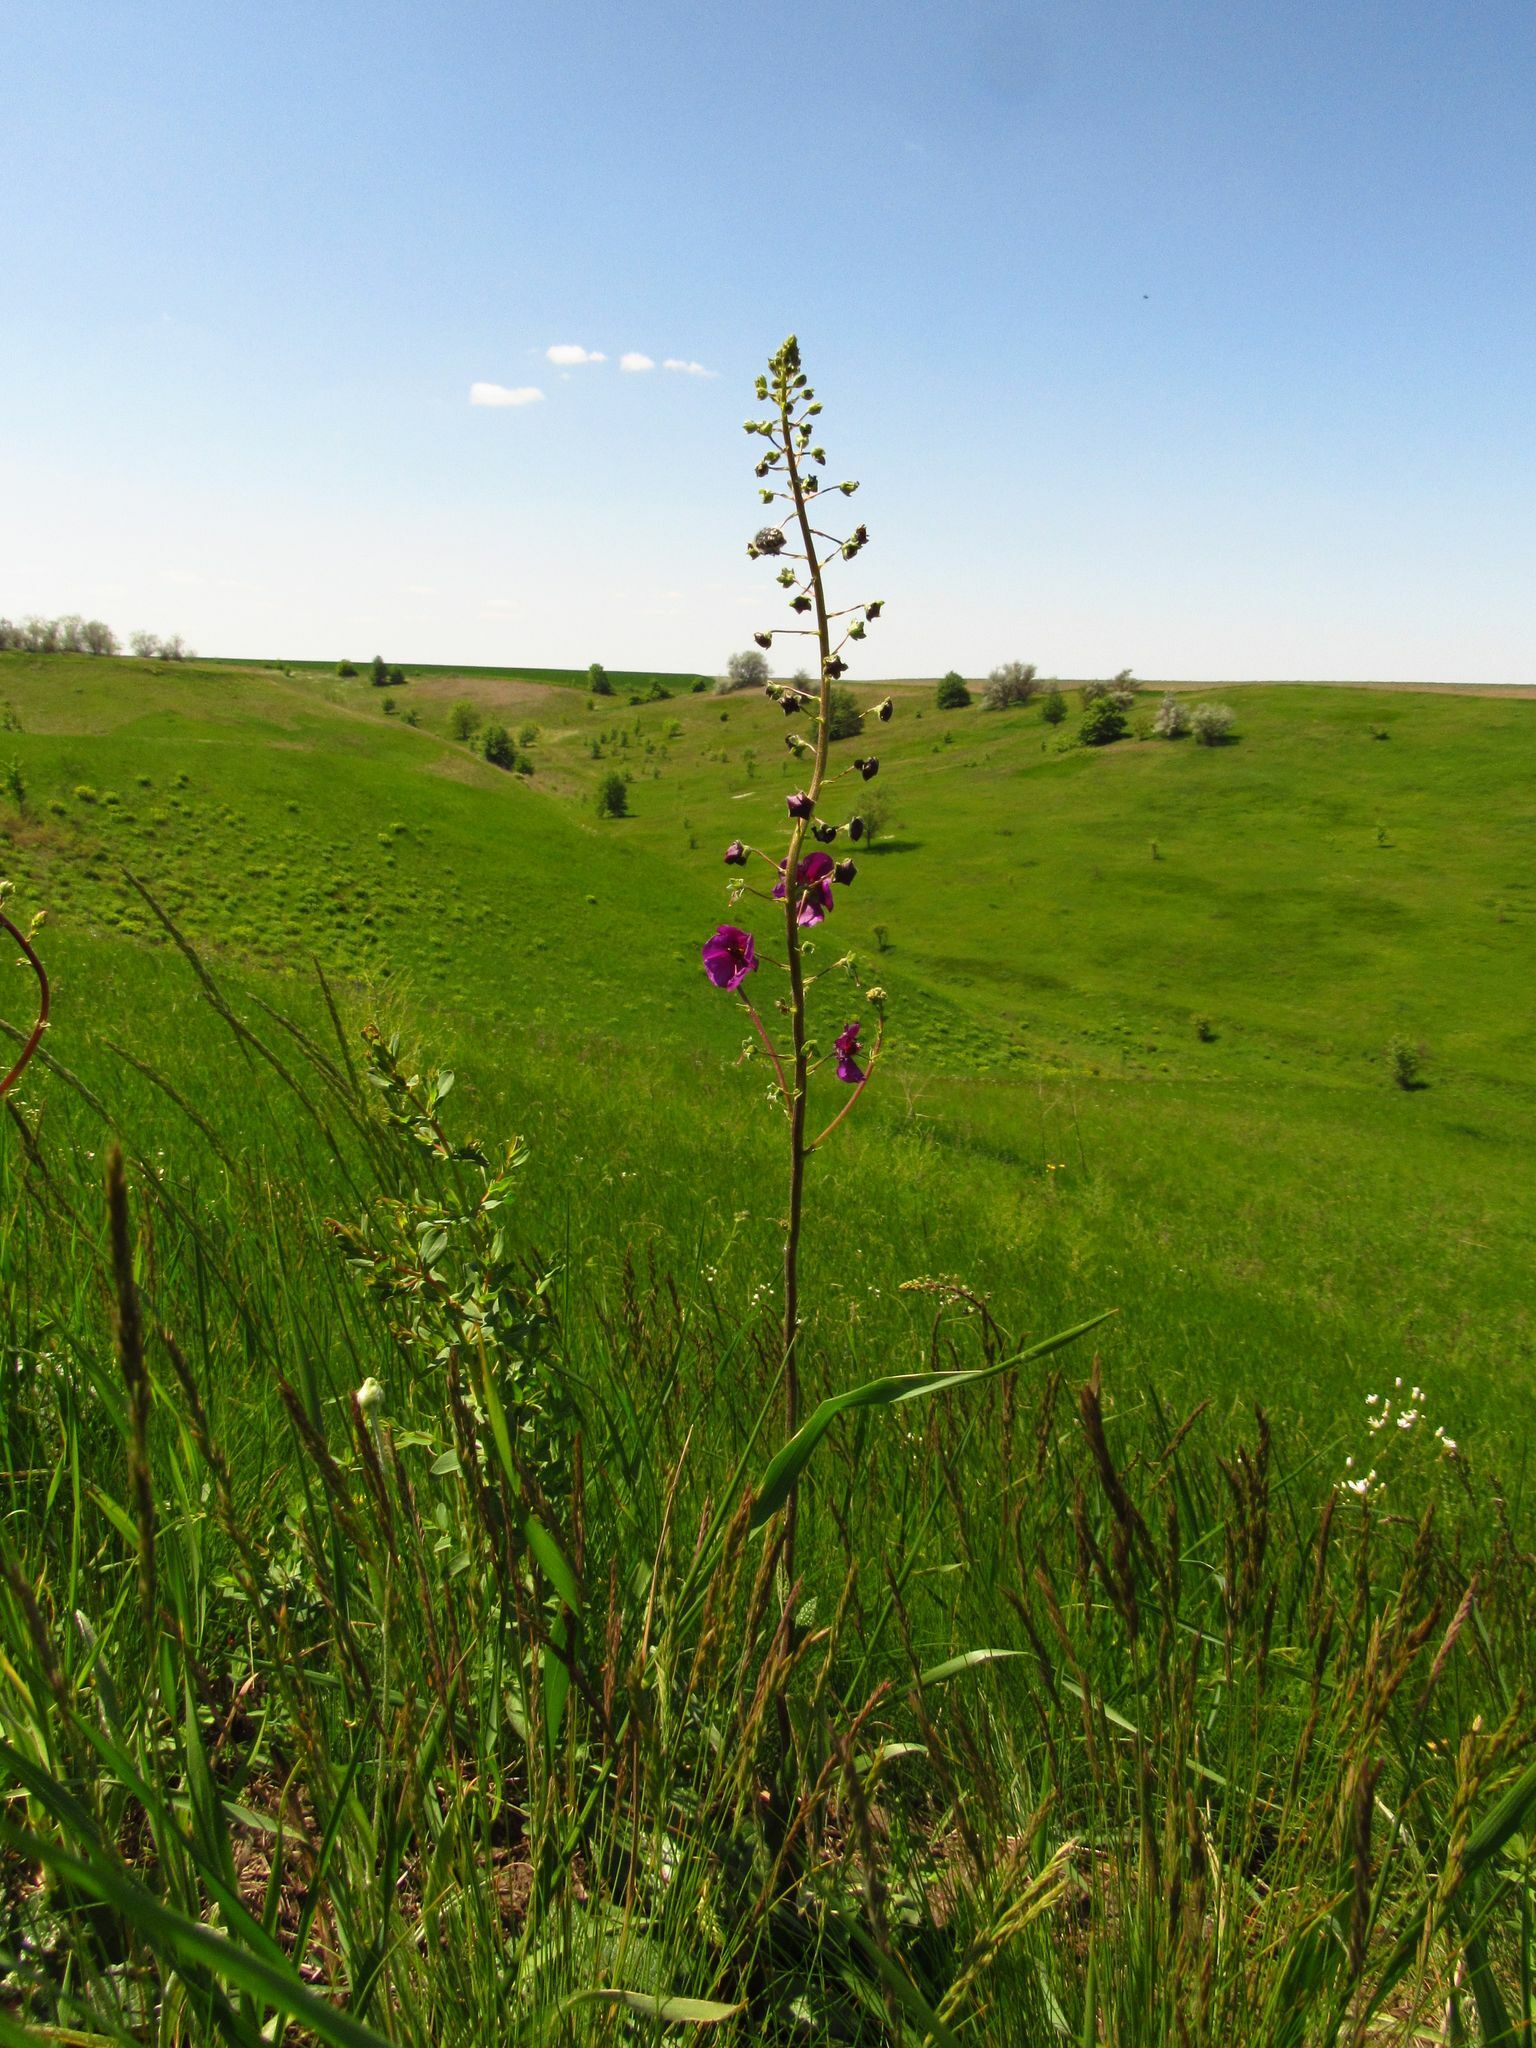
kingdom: Plantae
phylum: Tracheophyta
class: Magnoliopsida
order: Lamiales
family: Scrophulariaceae
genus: Verbascum
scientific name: Verbascum phoeniceum
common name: Purple mullein
